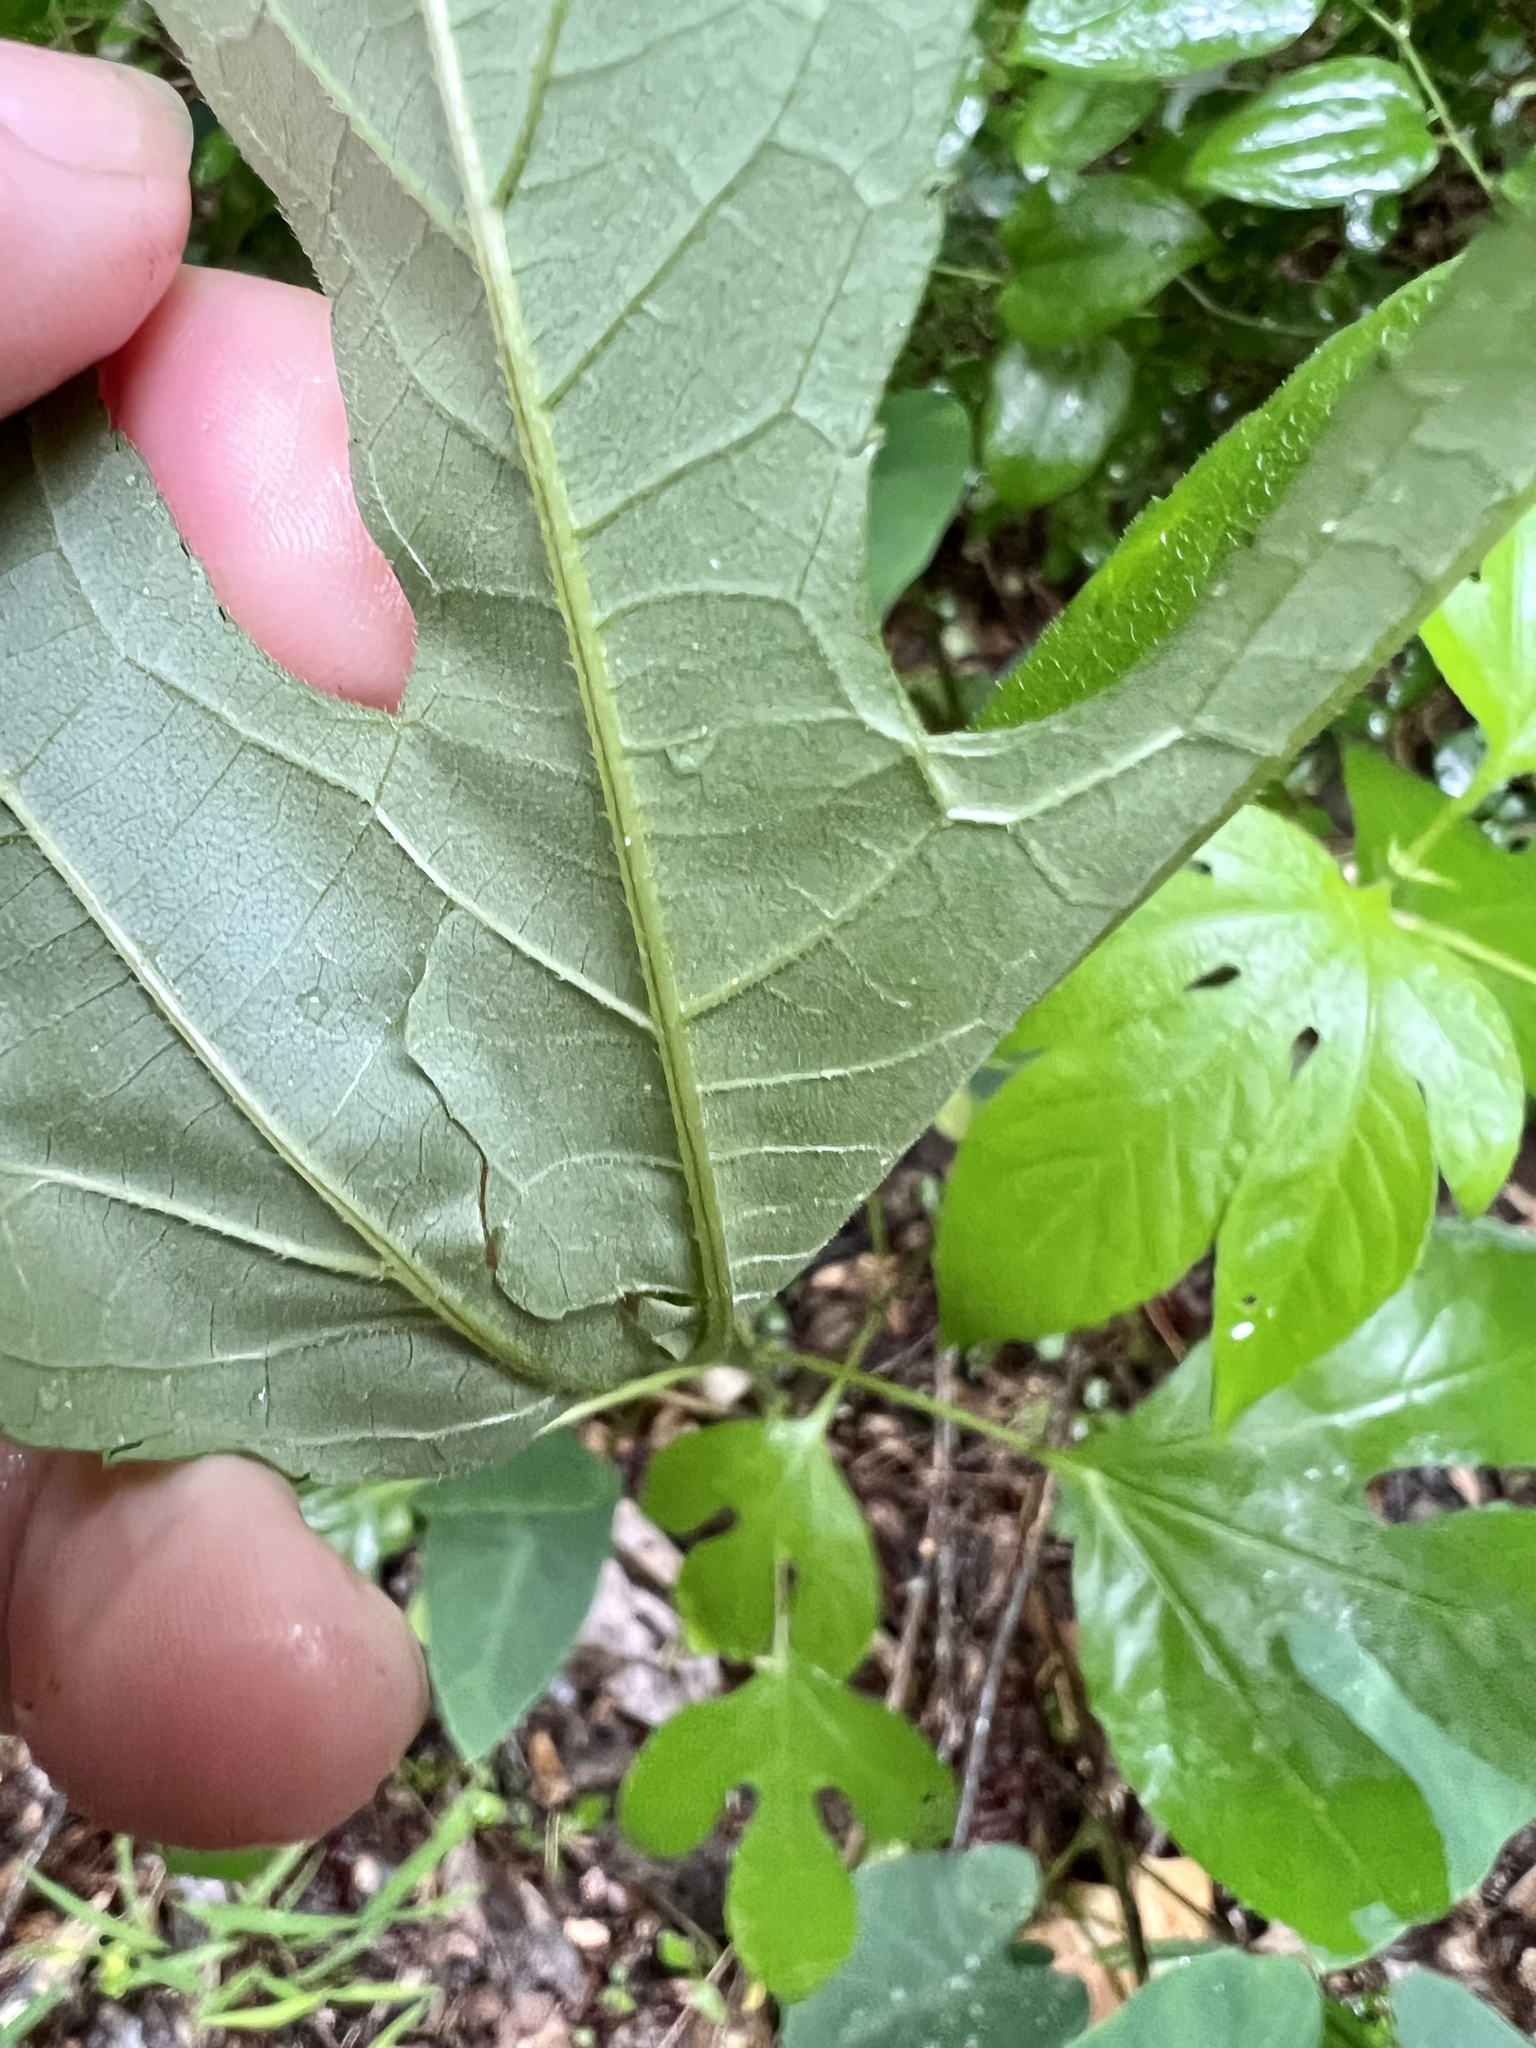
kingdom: Plantae
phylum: Tracheophyta
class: Magnoliopsida
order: Asterales
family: Asteraceae
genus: Ambrosia
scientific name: Ambrosia trifida
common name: Giant ragweed
